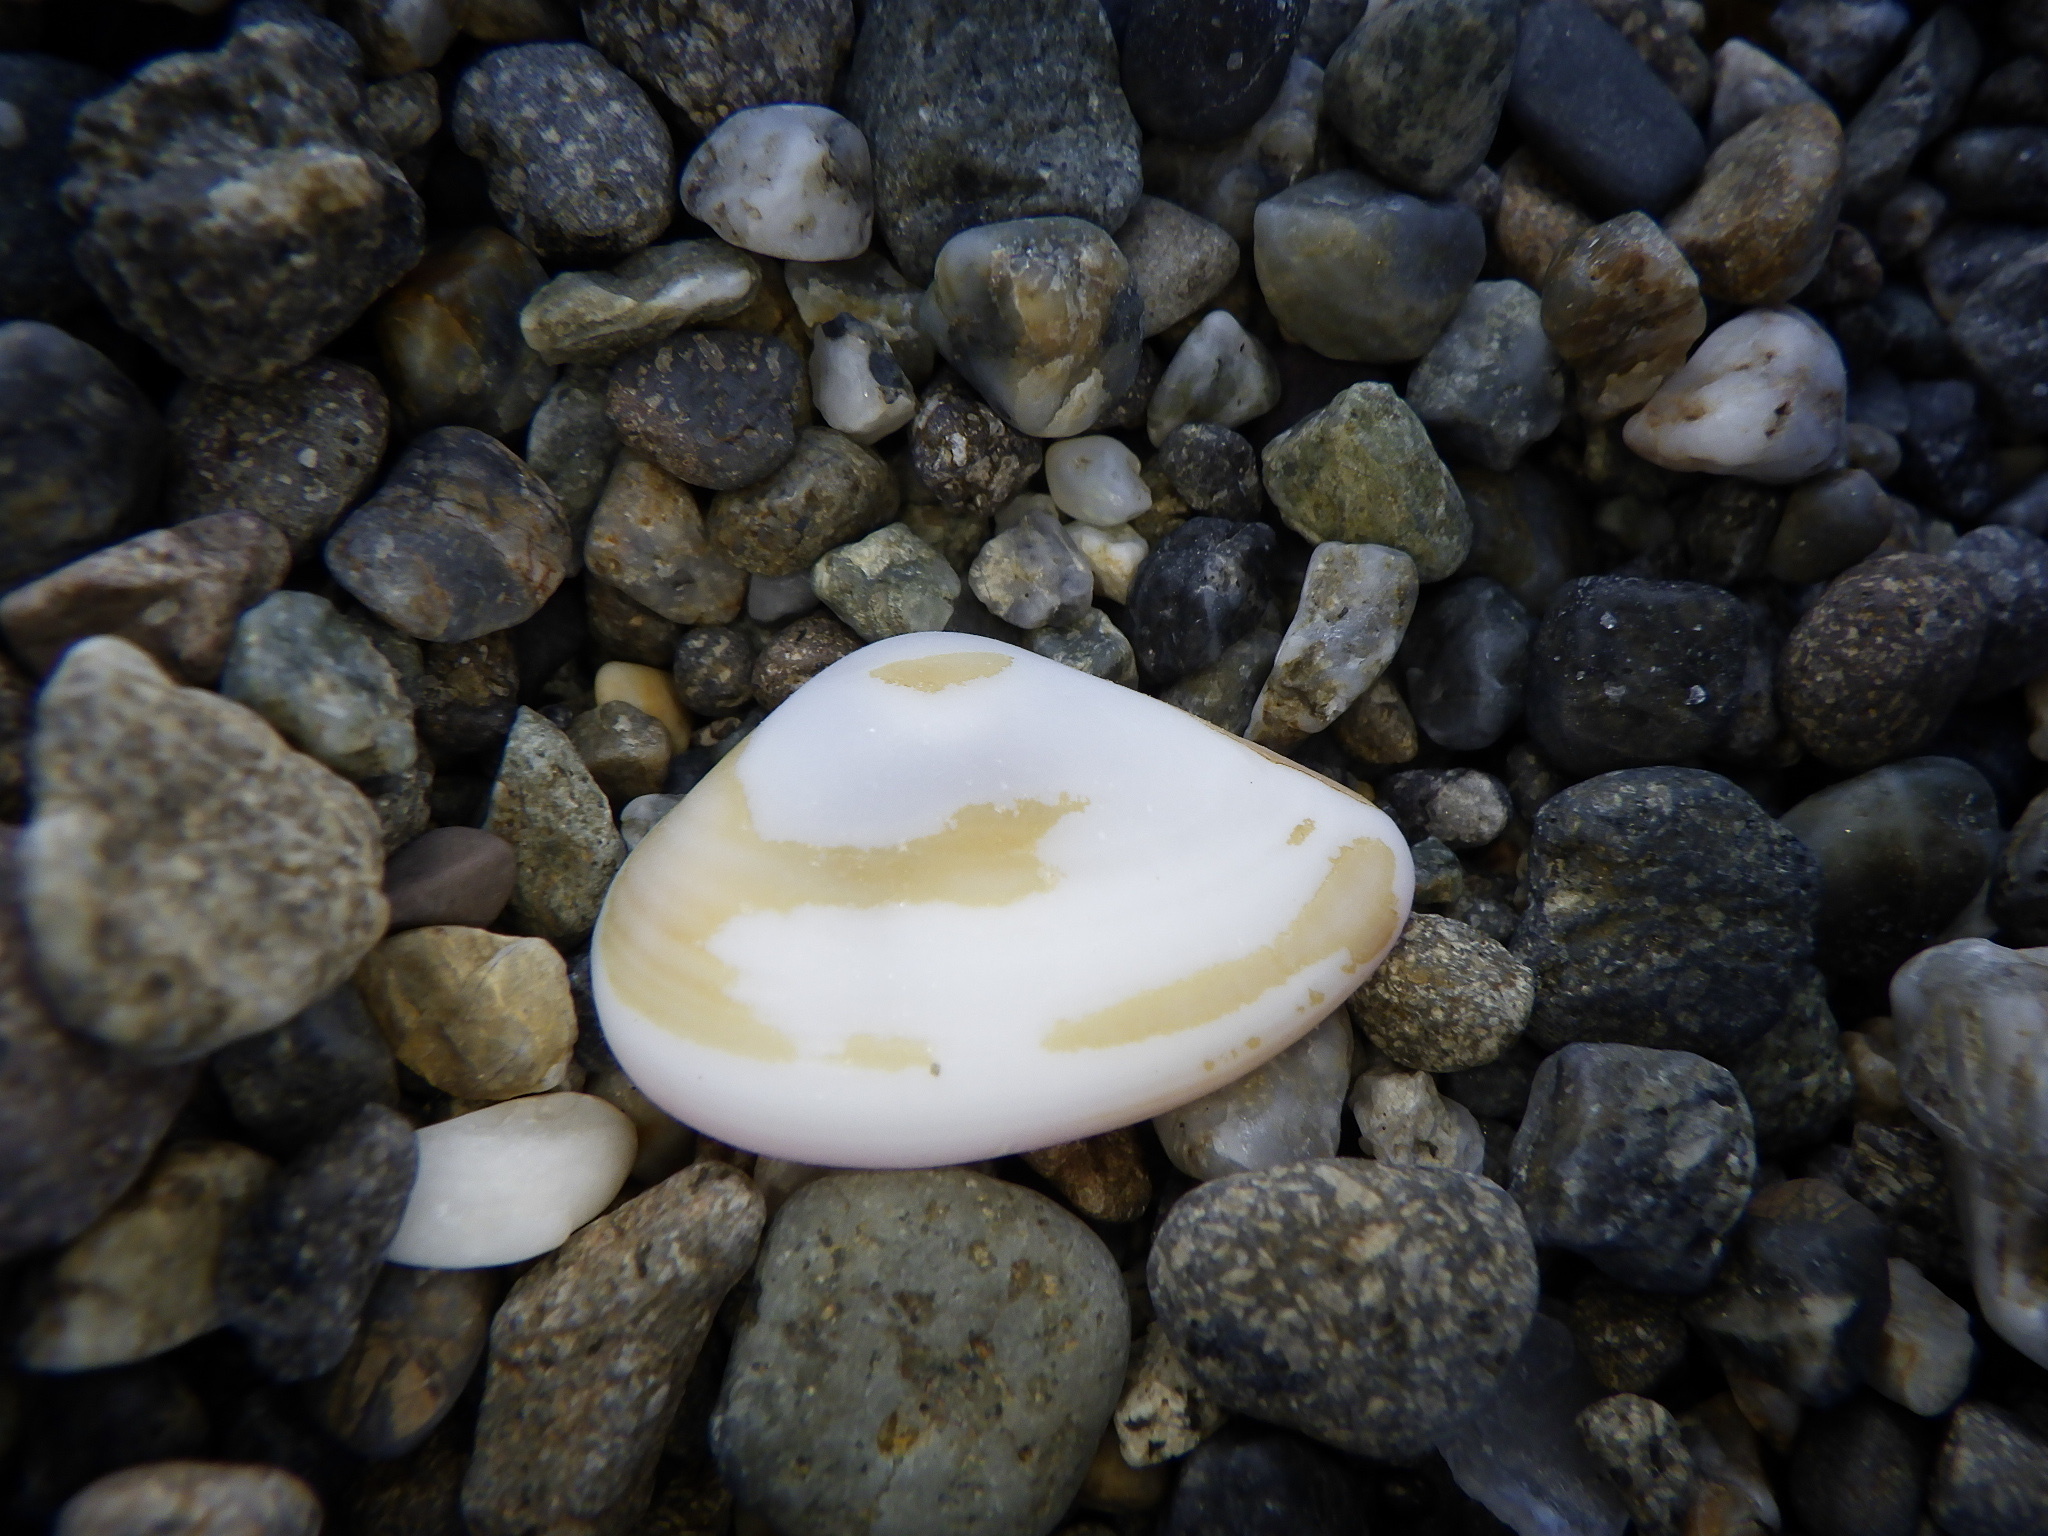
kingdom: Animalia
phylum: Mollusca
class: Bivalvia
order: Myida
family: Corbulidae
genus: Corbula
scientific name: Corbula erythrodon
